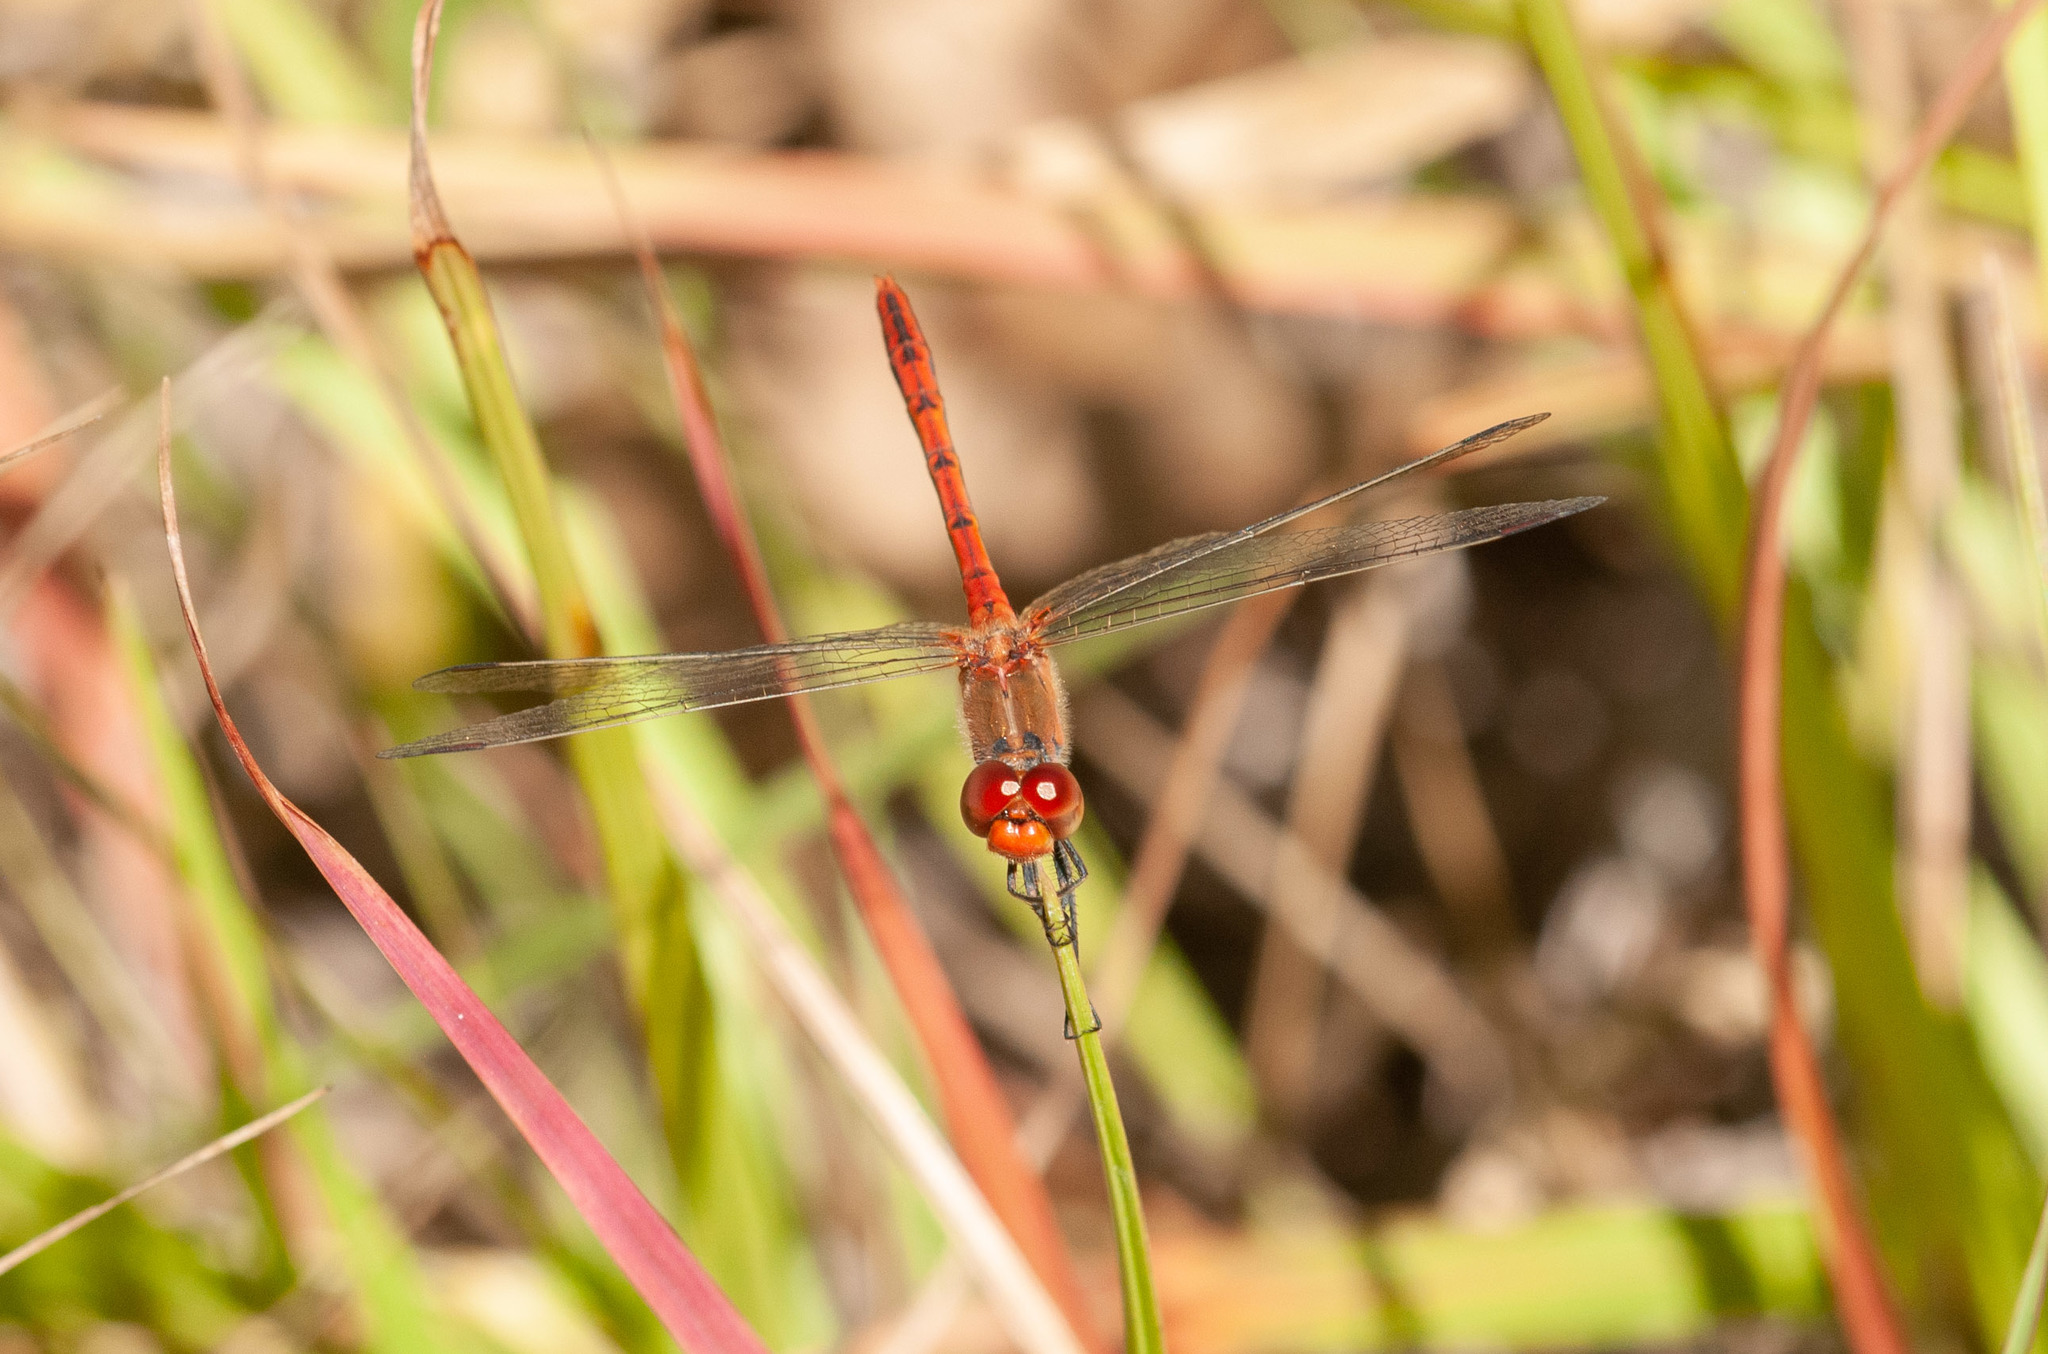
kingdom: Animalia
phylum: Arthropoda
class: Insecta
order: Odonata
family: Libellulidae
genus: Diplacodes
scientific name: Diplacodes bipunctata
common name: Red percher dragonfly
